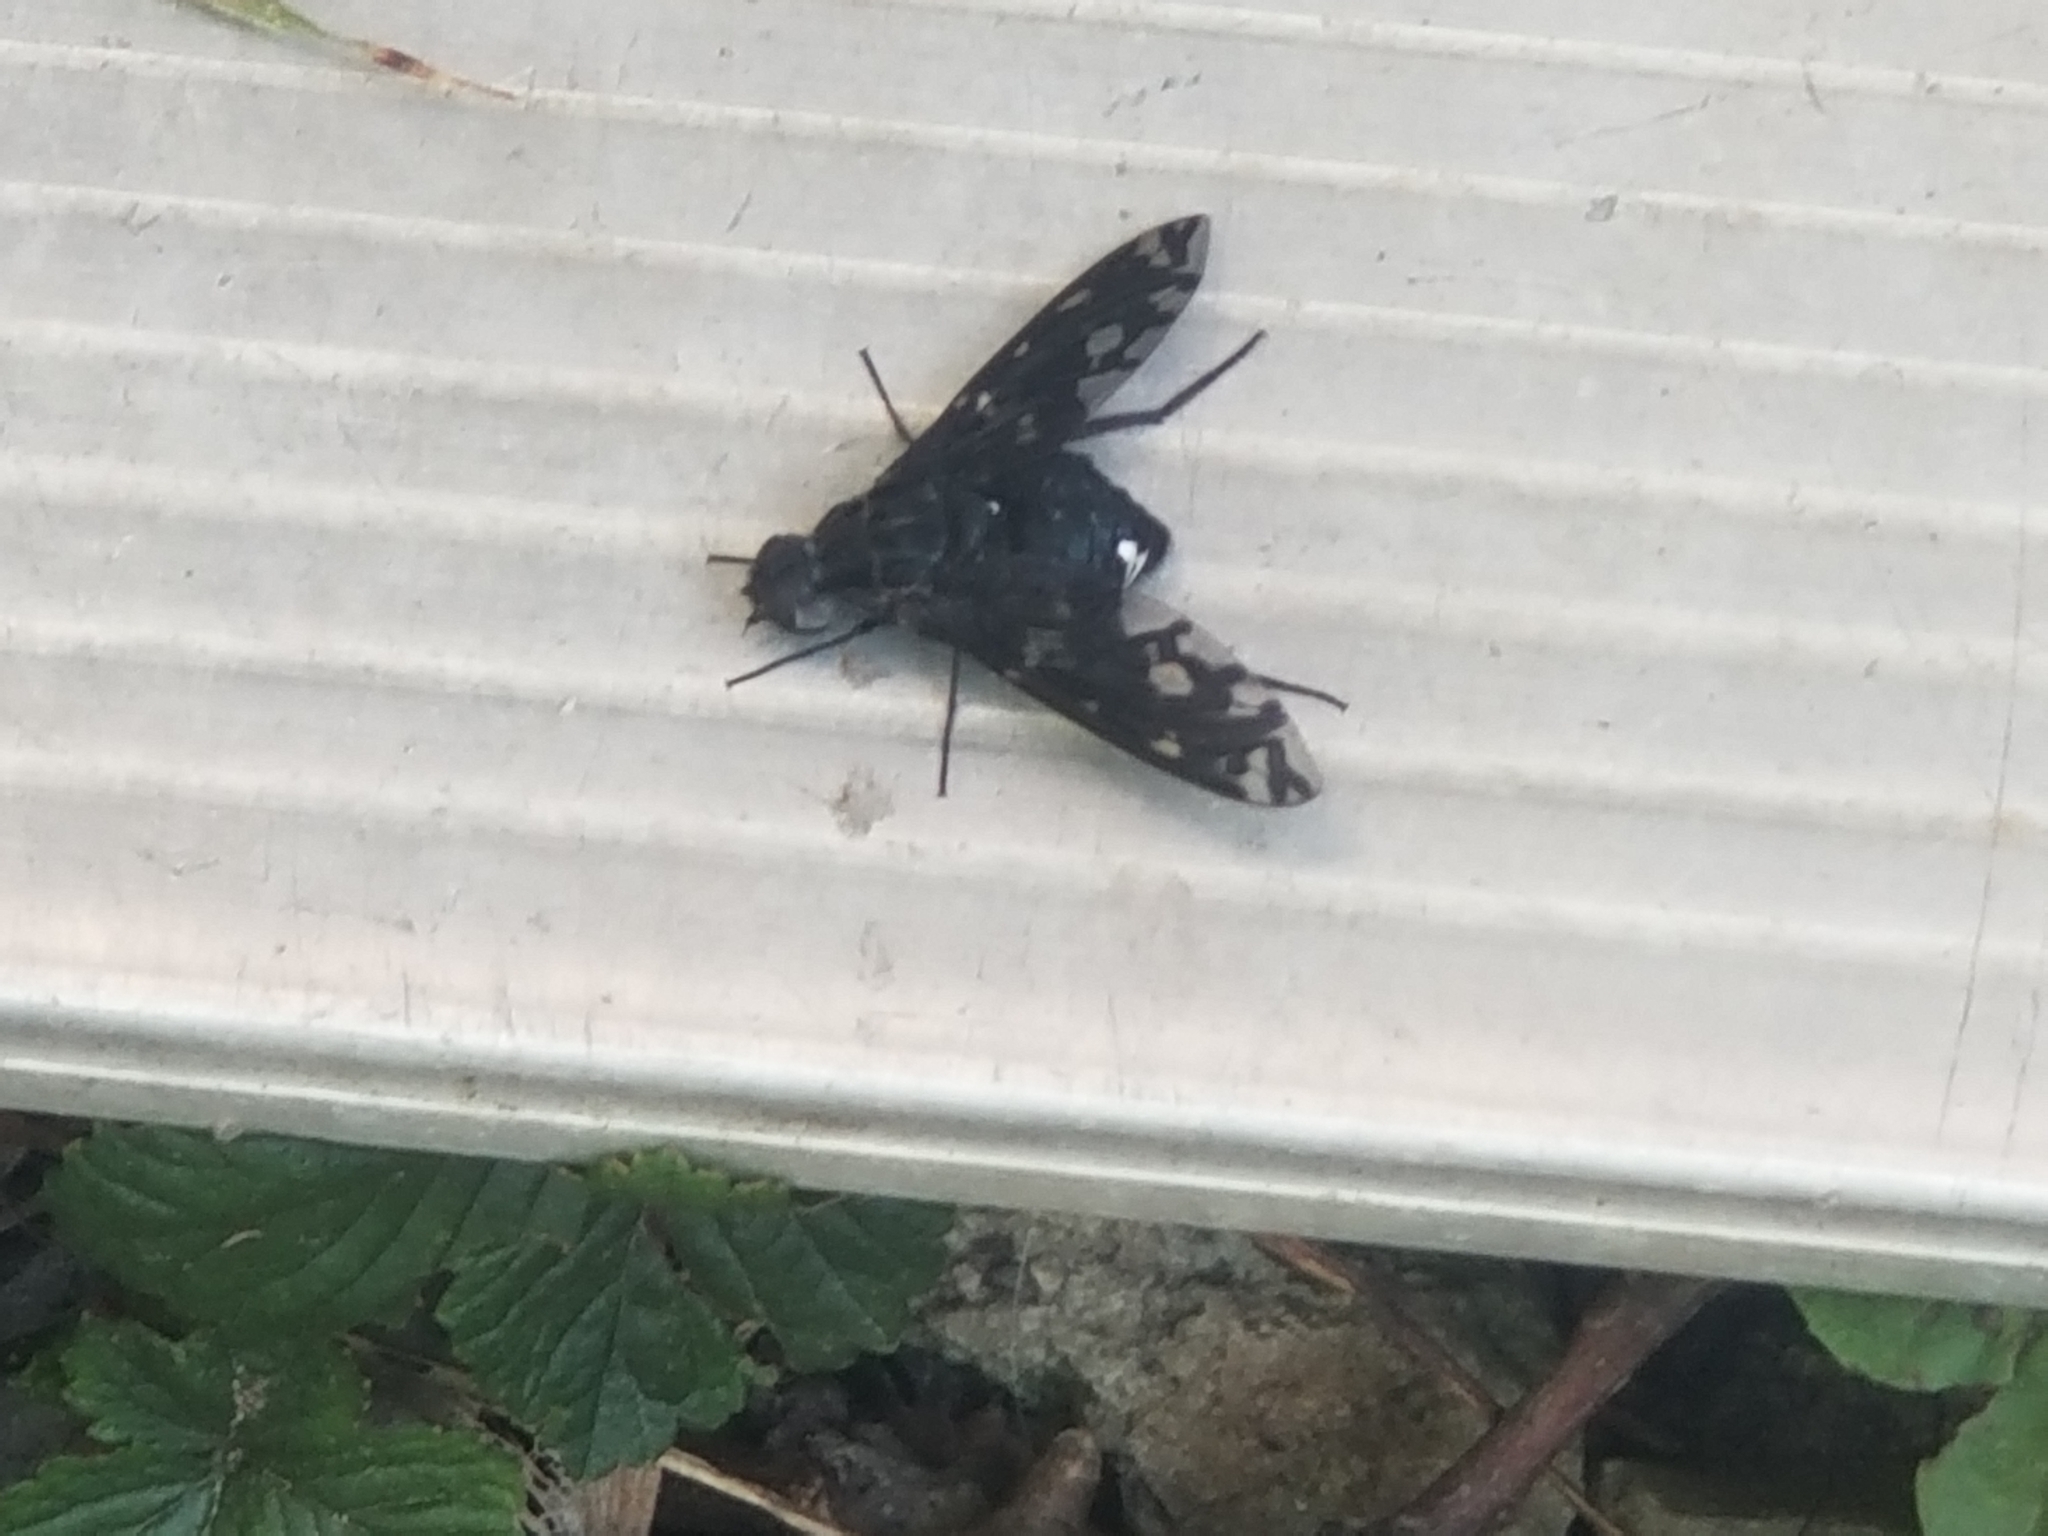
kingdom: Animalia
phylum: Arthropoda
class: Insecta
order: Diptera
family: Bombyliidae
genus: Xenox
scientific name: Xenox tigrinus
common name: Tiger bee fly
